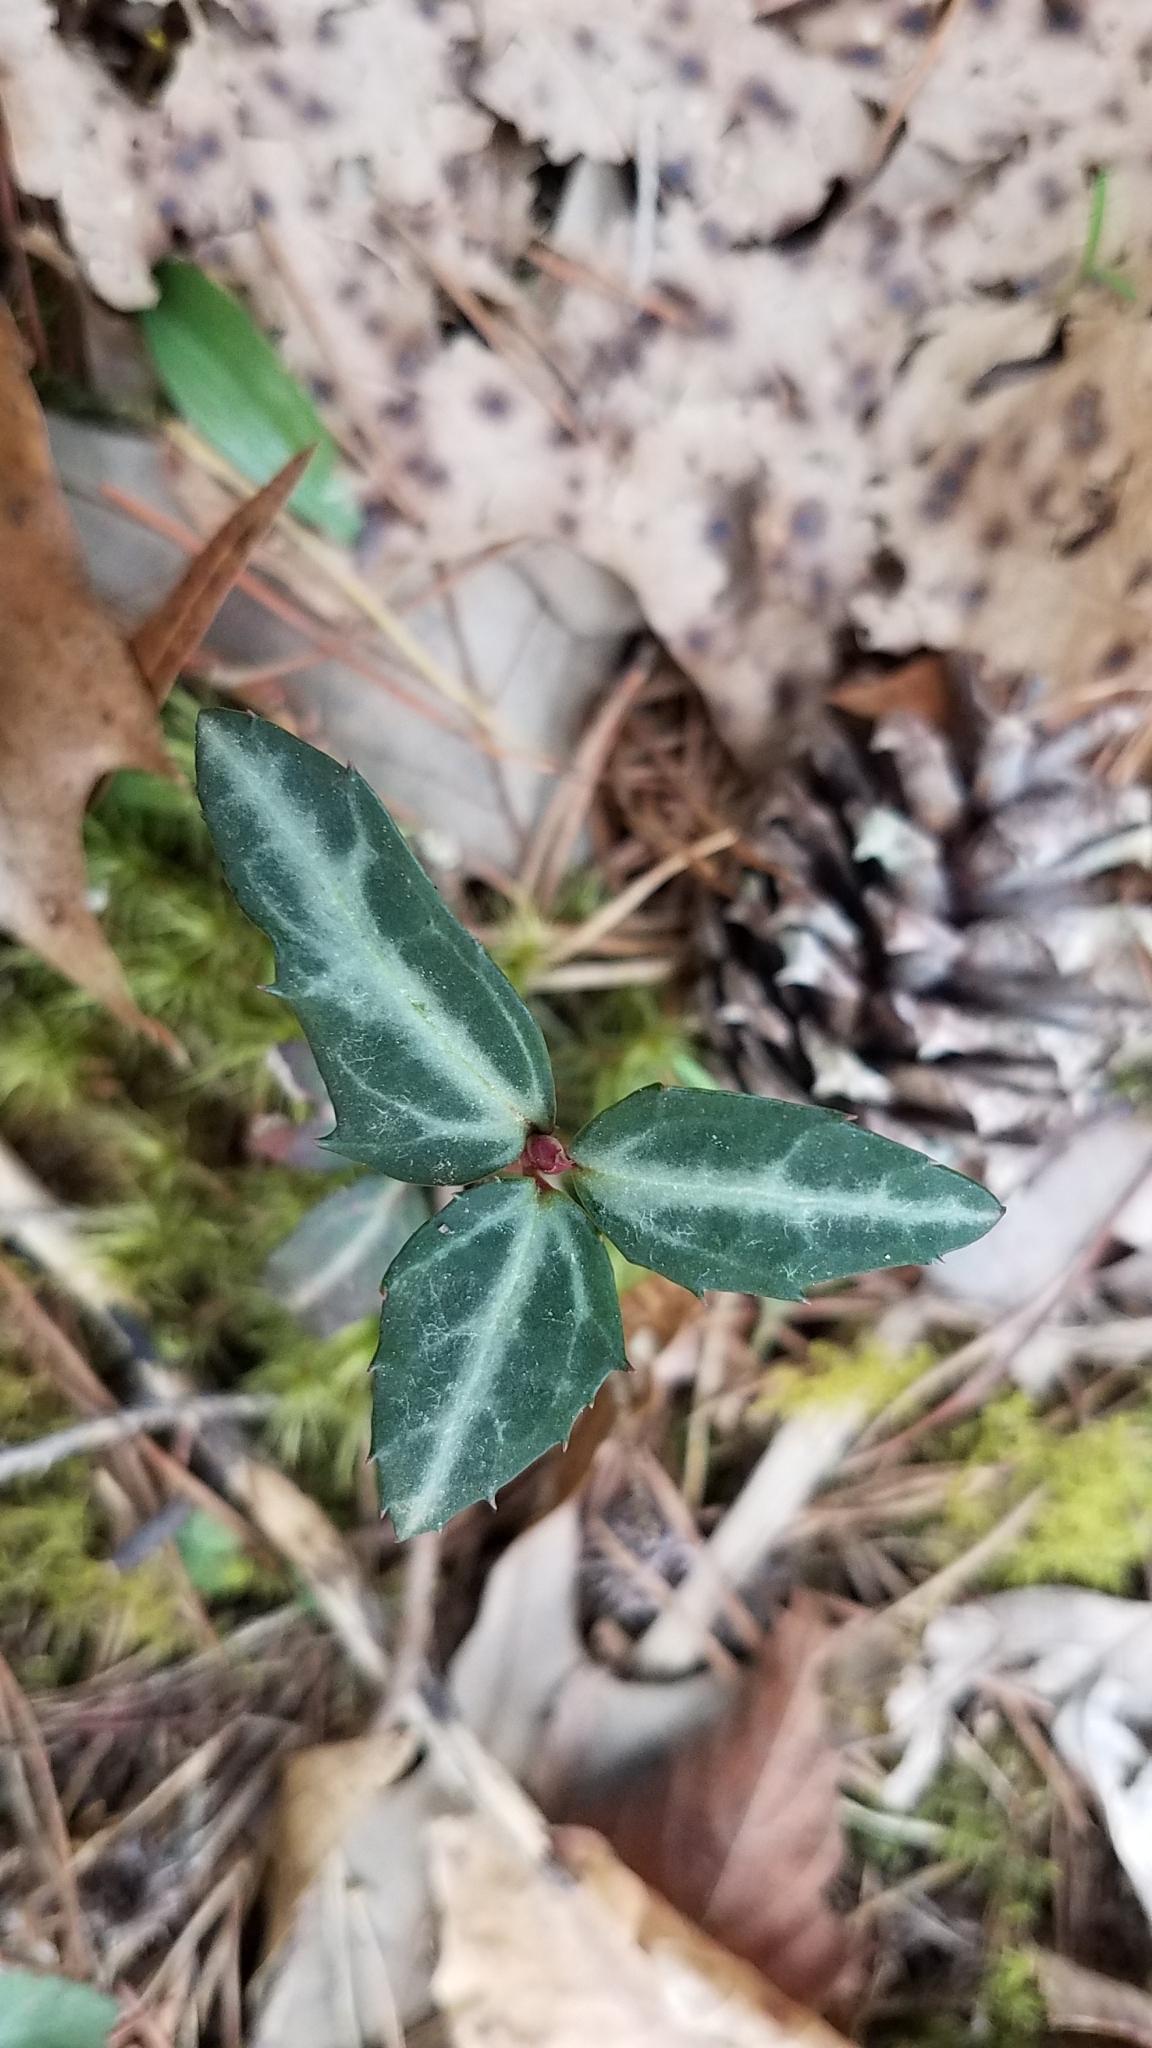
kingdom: Plantae
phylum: Tracheophyta
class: Magnoliopsida
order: Ericales
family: Ericaceae
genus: Chimaphila
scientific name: Chimaphila maculata
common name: Spotted pipsissewa
